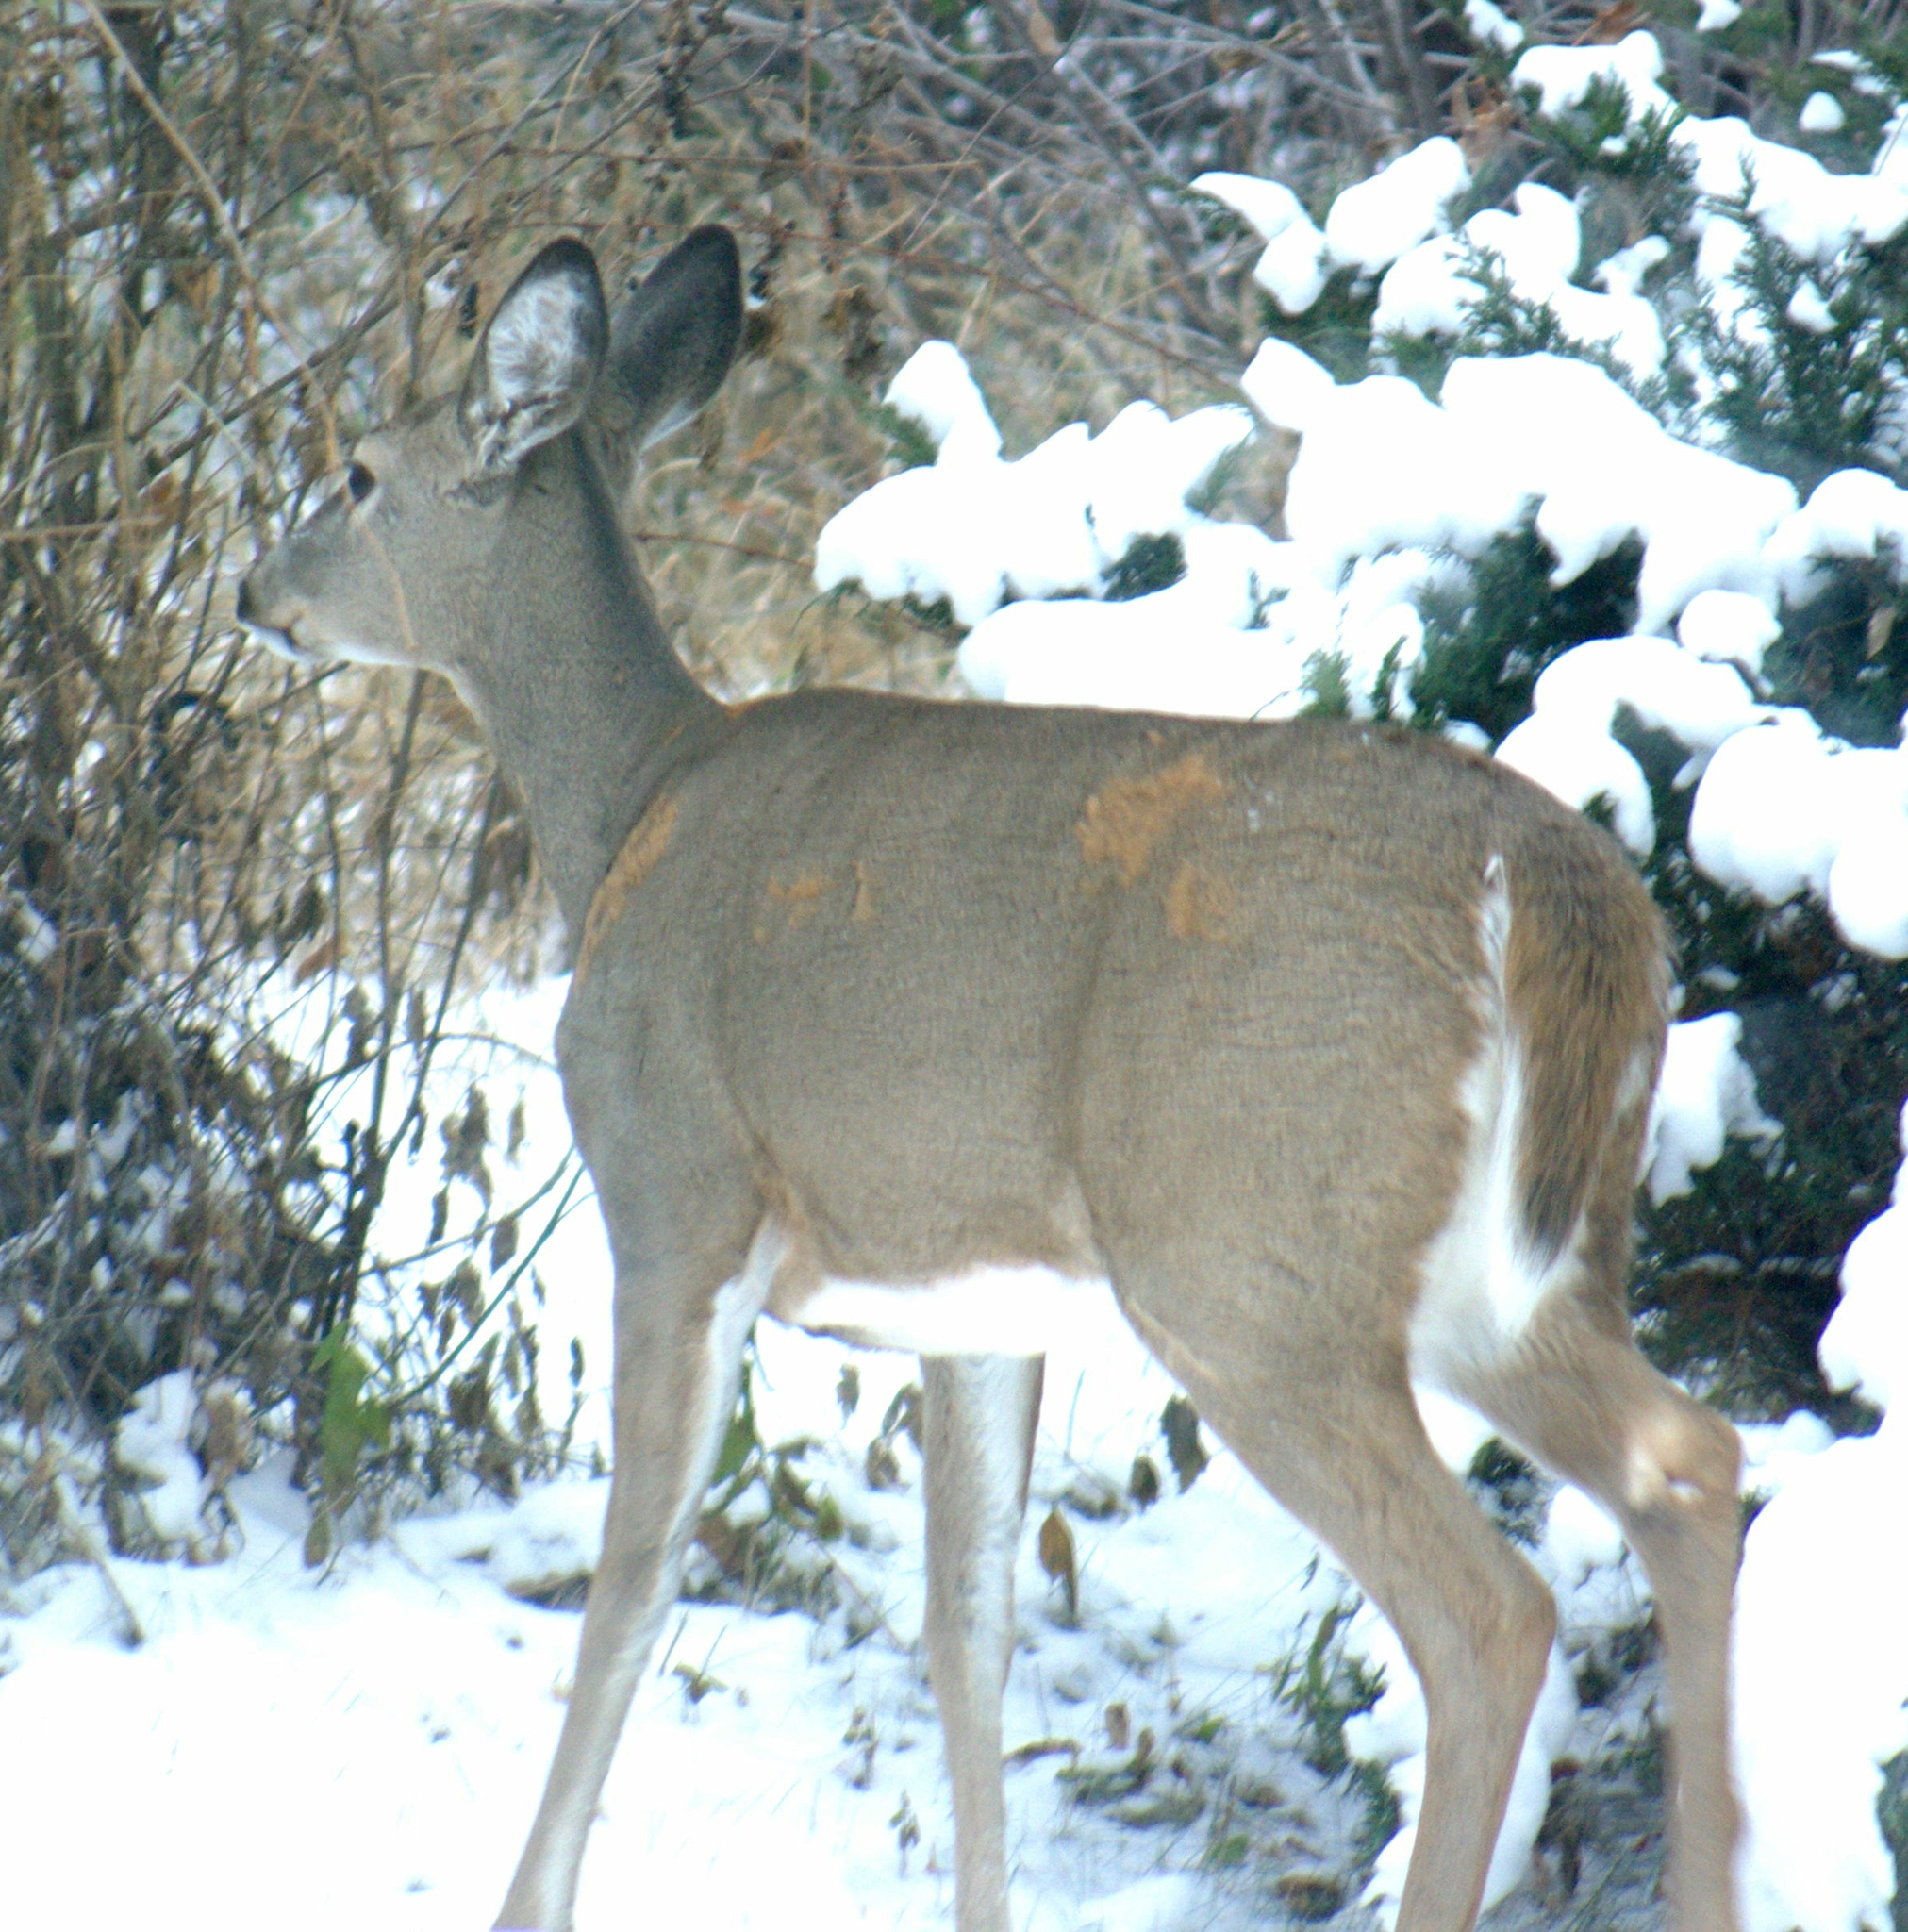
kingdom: Animalia
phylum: Chordata
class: Mammalia
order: Artiodactyla
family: Cervidae
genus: Odocoileus
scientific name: Odocoileus virginianus
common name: White-tailed deer
